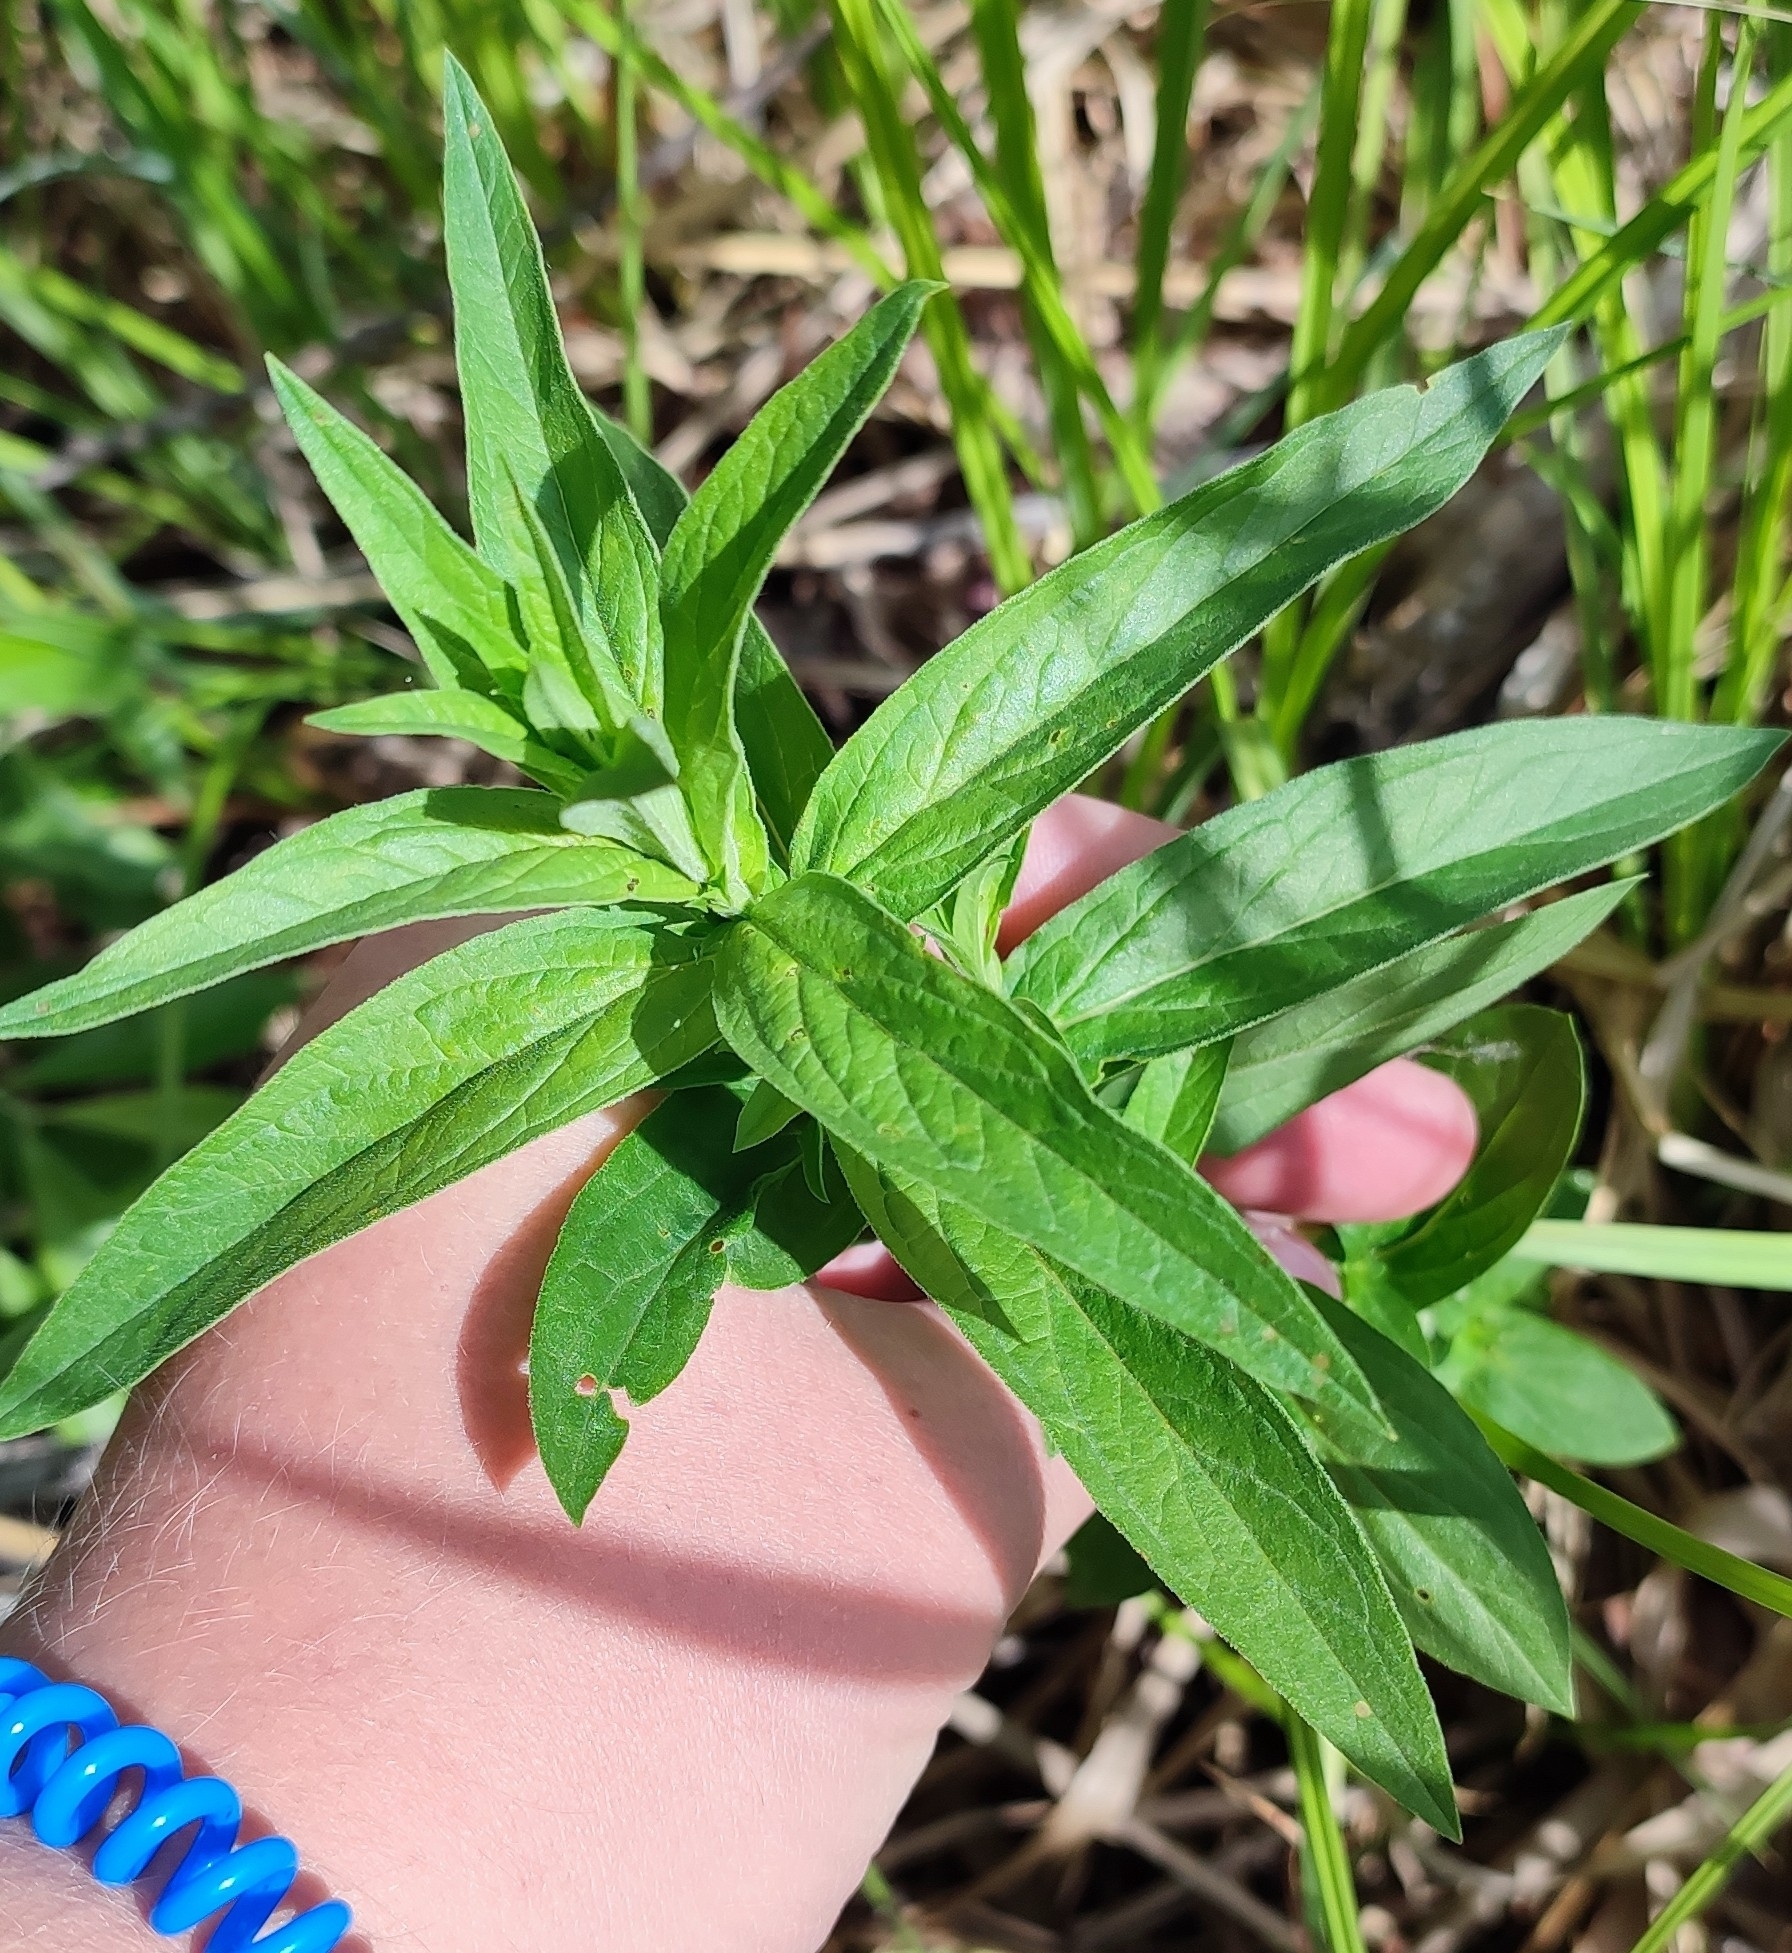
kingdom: Plantae
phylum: Tracheophyta
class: Magnoliopsida
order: Myrtales
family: Lythraceae
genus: Lythrum
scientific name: Lythrum salicaria
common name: Purple loosestrife
